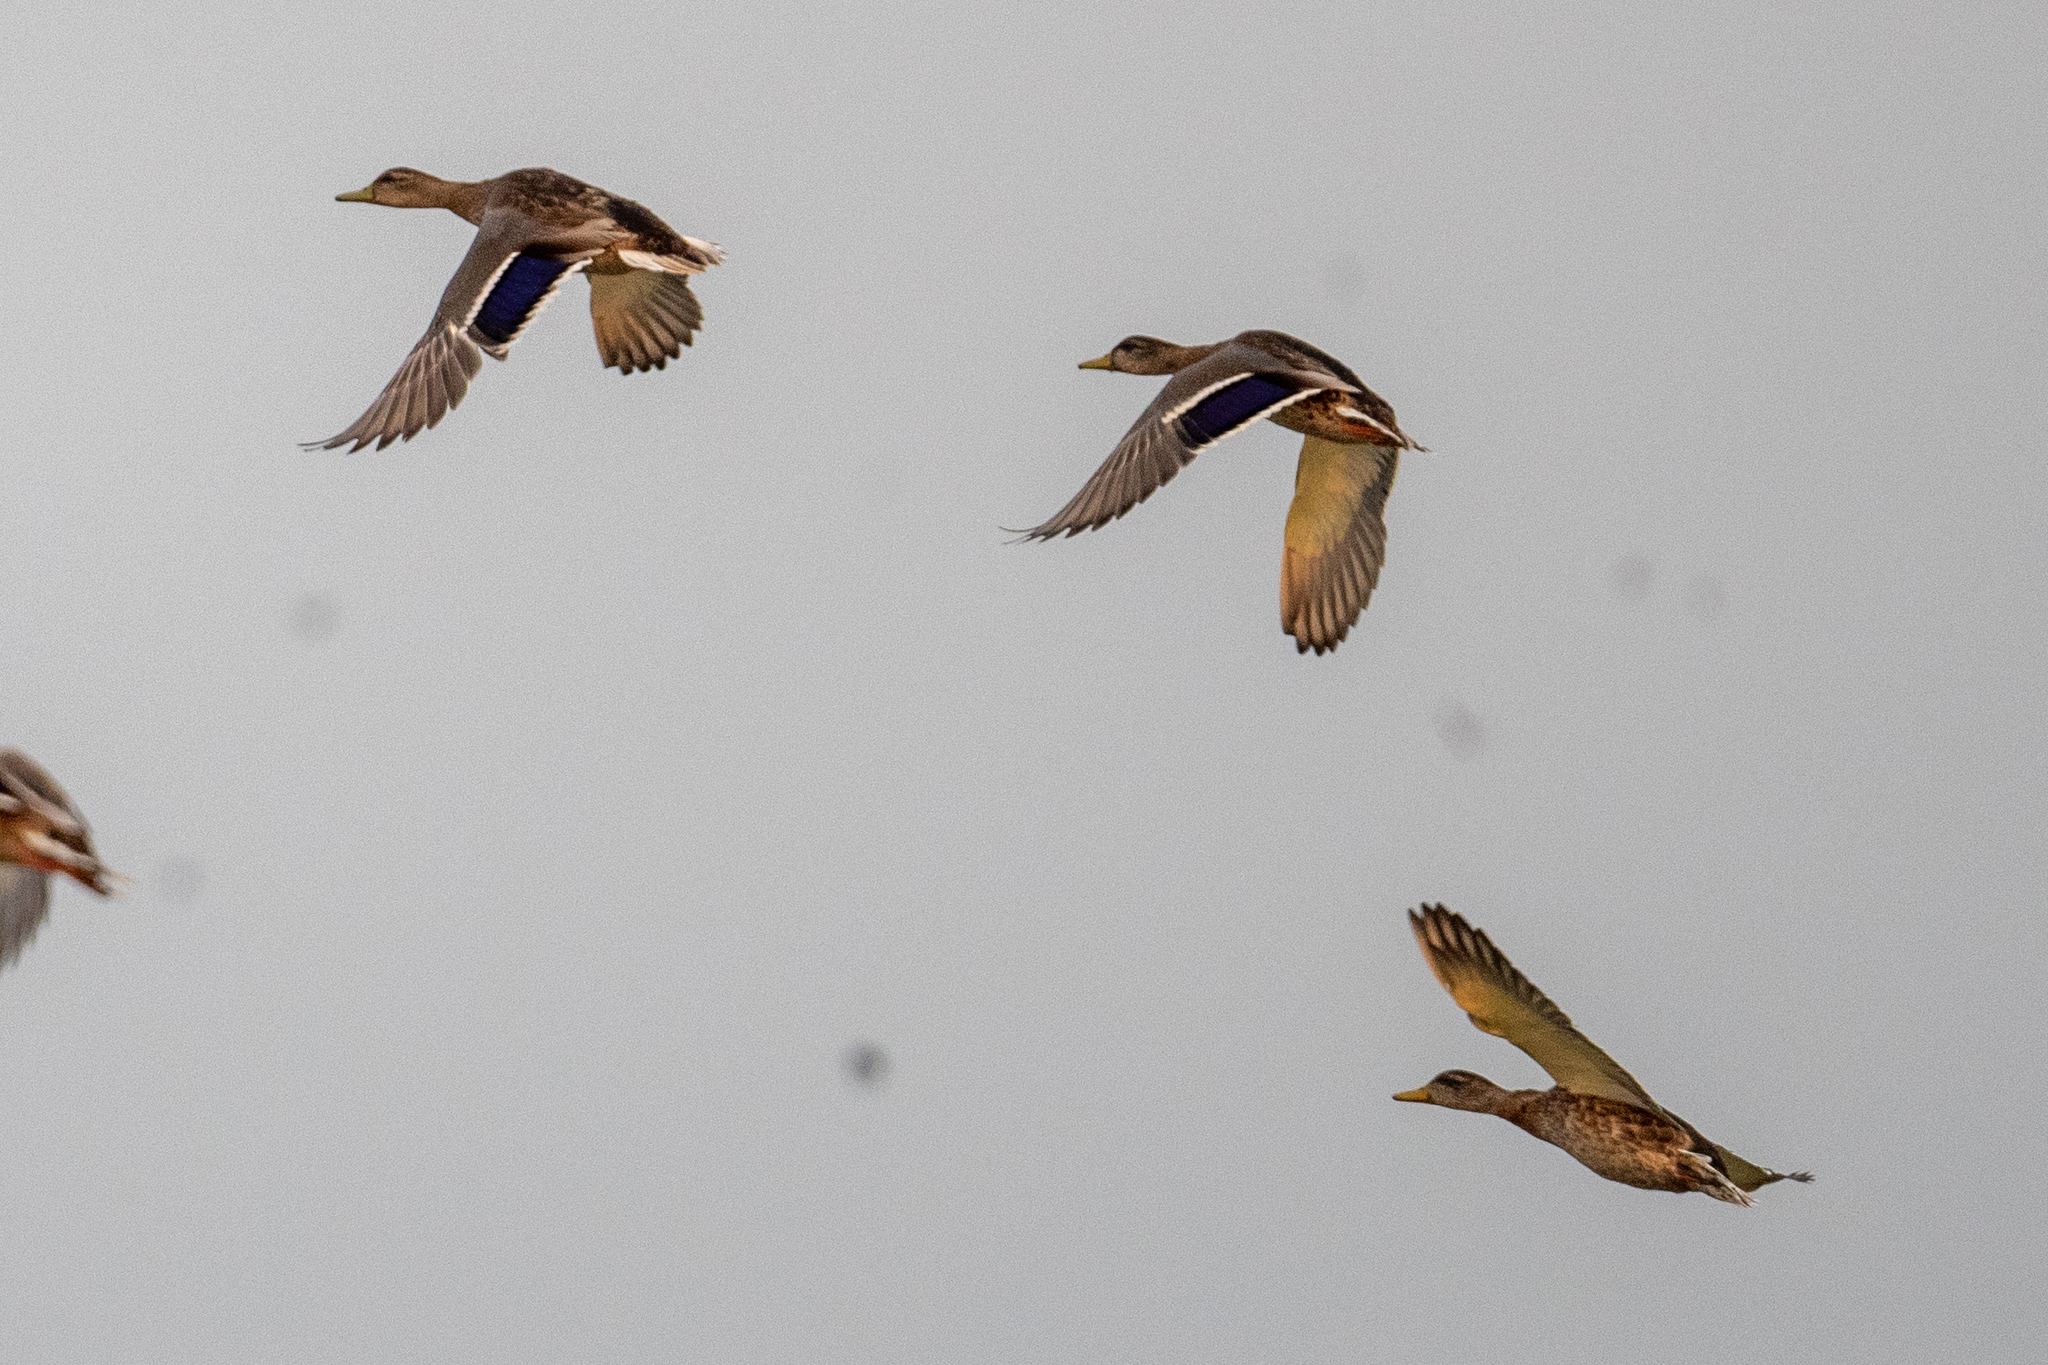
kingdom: Animalia
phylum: Chordata
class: Aves
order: Anseriformes
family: Anatidae
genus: Anas
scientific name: Anas platyrhynchos
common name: Mallard
